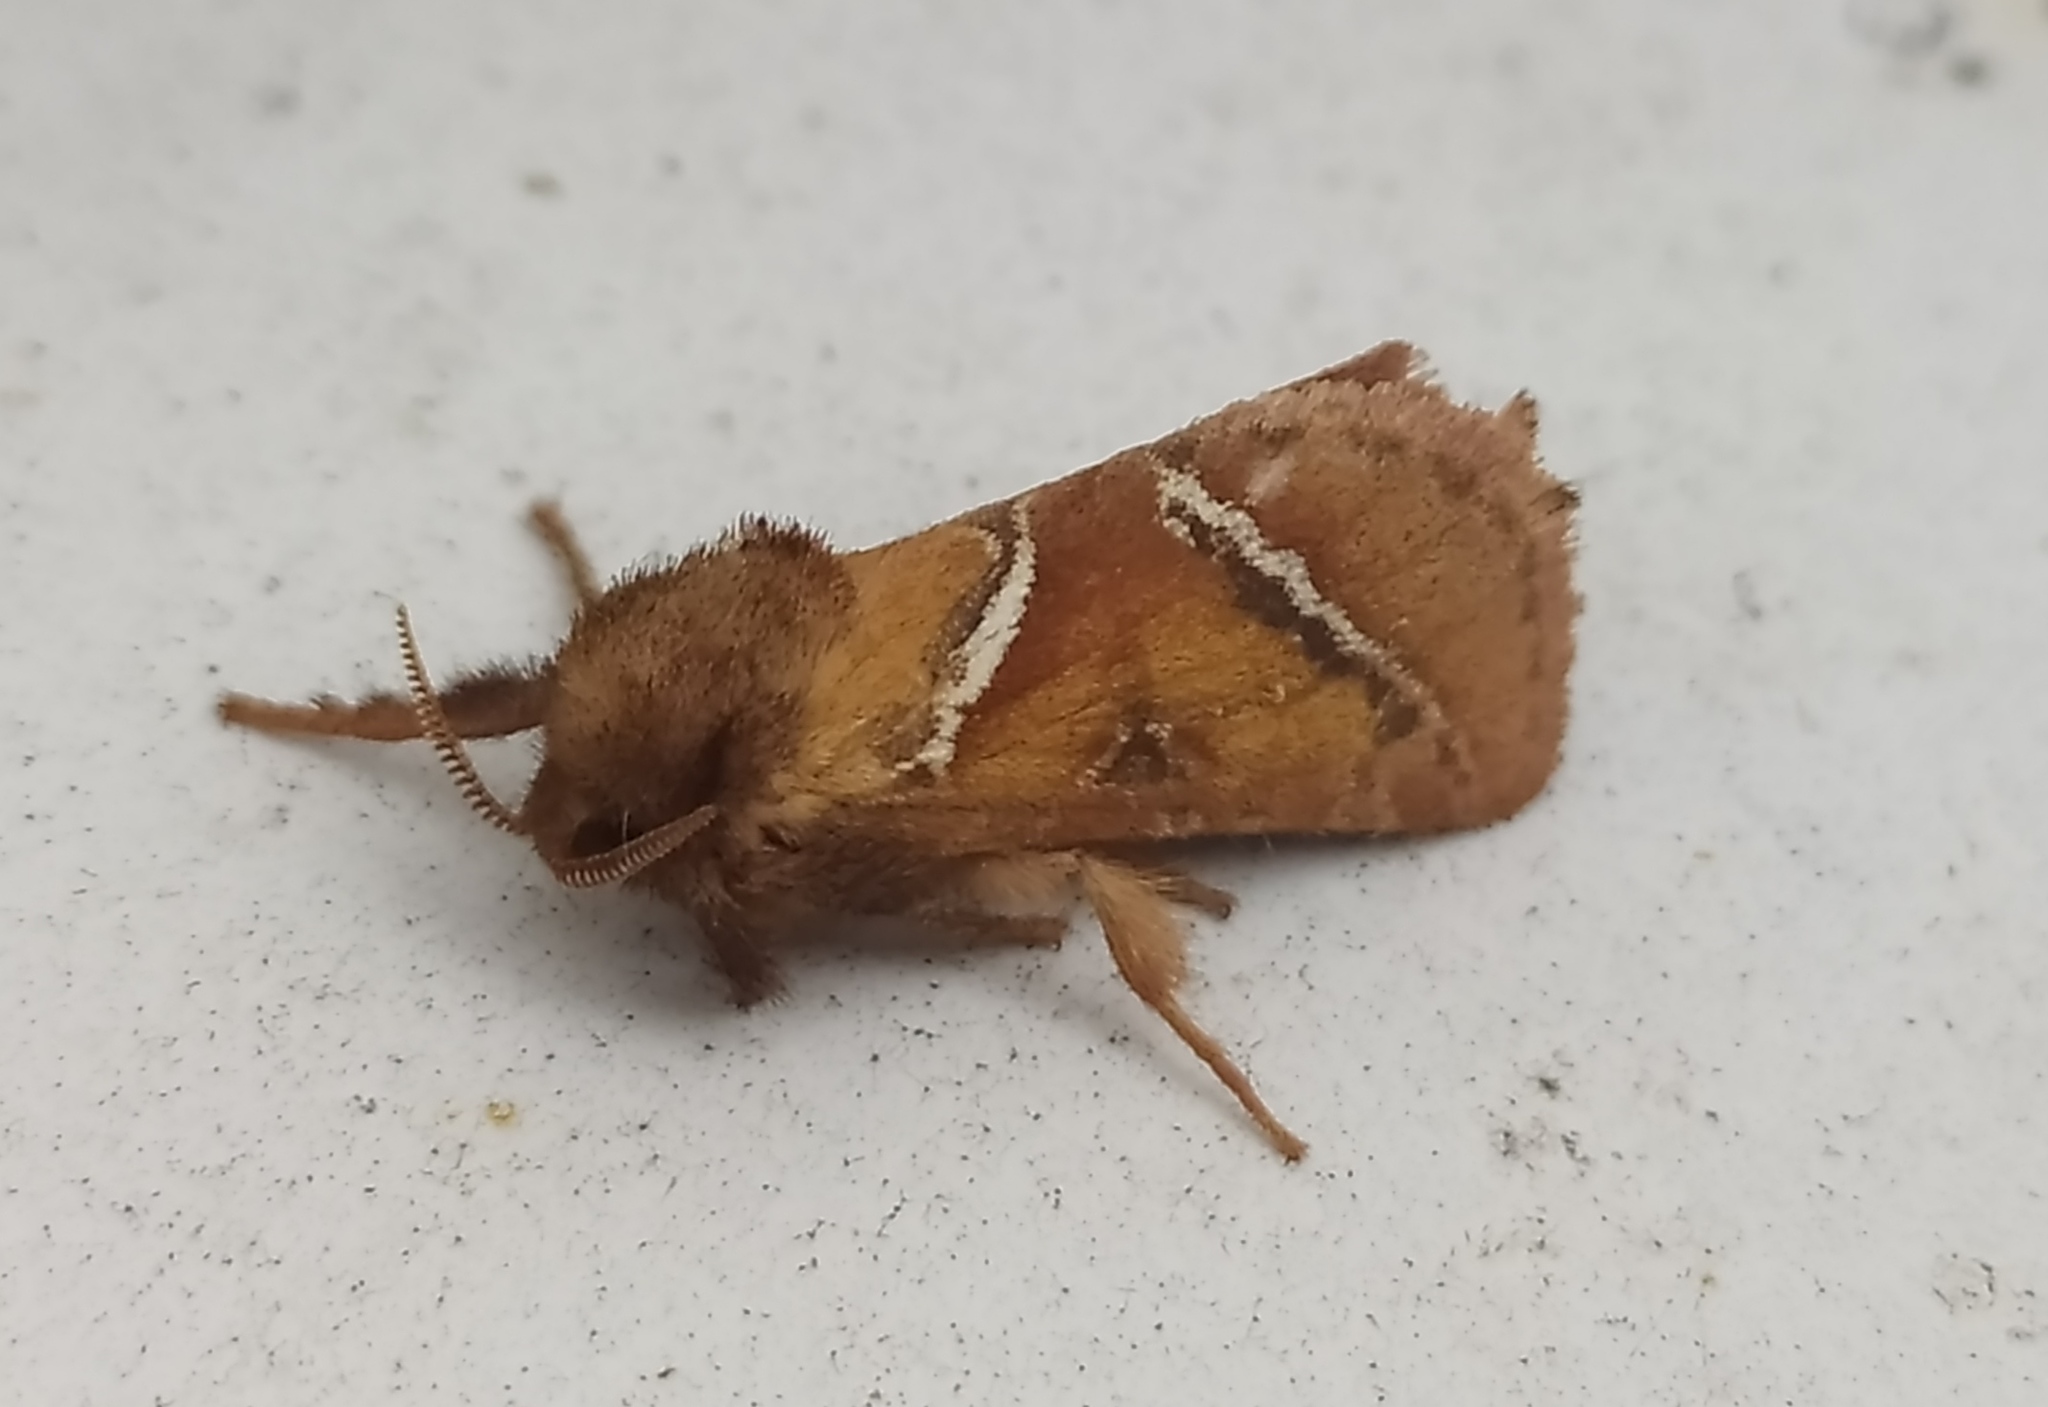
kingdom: Animalia
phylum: Arthropoda
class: Insecta
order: Lepidoptera
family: Hepialidae
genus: Triodia
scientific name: Triodia sylvina
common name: Orange swift
